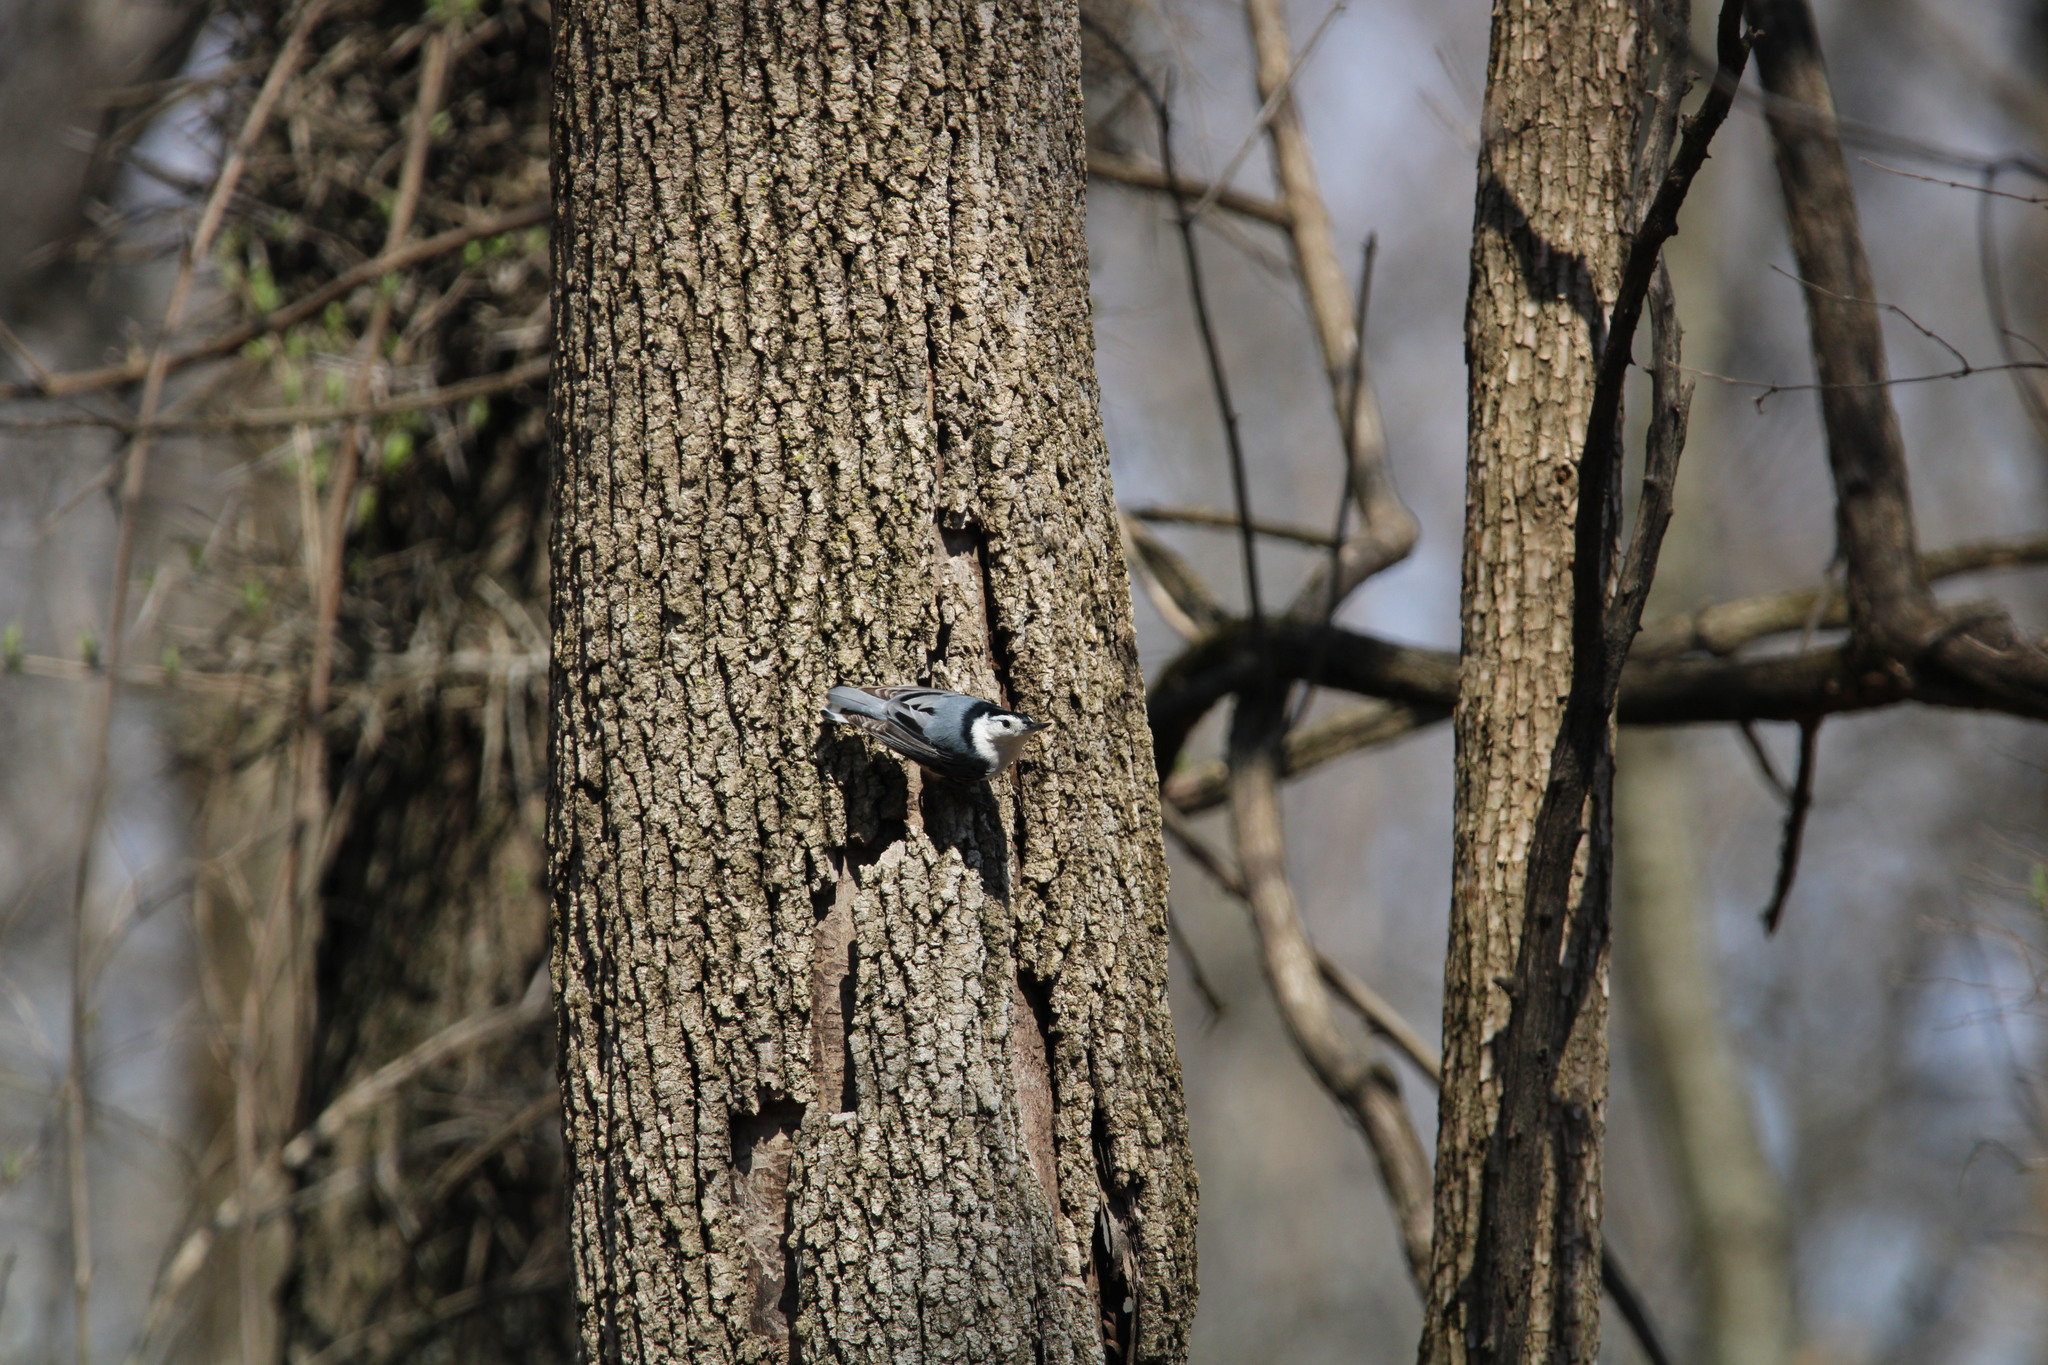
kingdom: Animalia
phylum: Chordata
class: Aves
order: Passeriformes
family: Sittidae
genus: Sitta
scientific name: Sitta carolinensis
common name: White-breasted nuthatch
